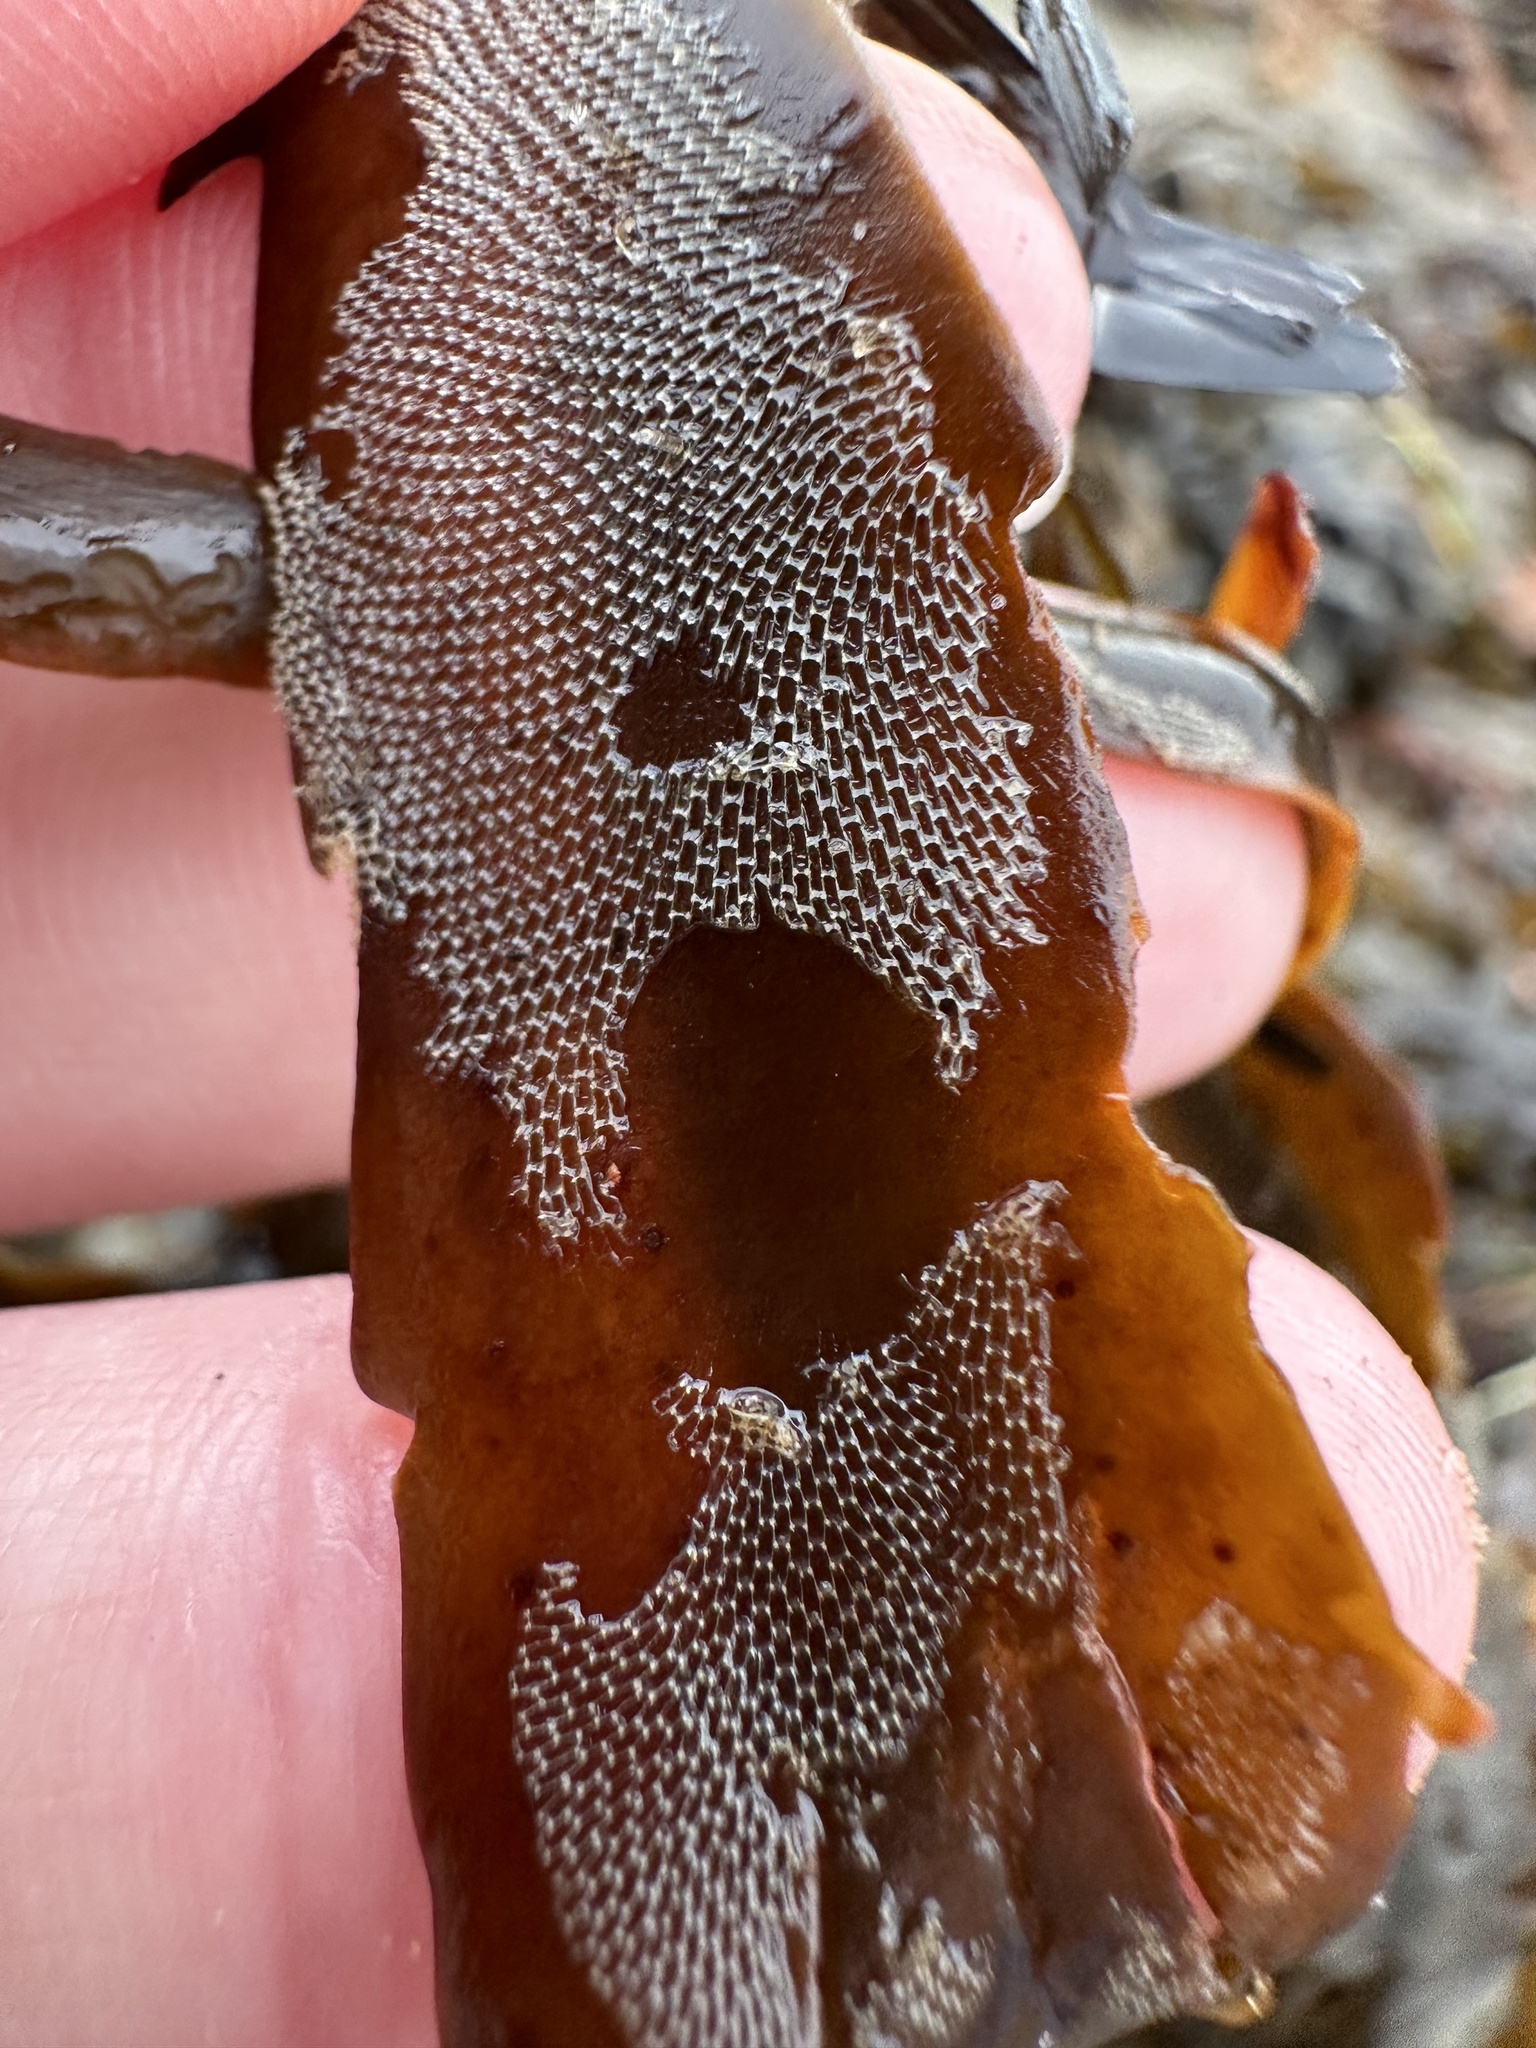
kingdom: Animalia
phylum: Bryozoa
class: Gymnolaemata
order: Cheilostomatida
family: Membraniporidae
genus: Membranipora
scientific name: Membranipora membranacea
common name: Sea mat
